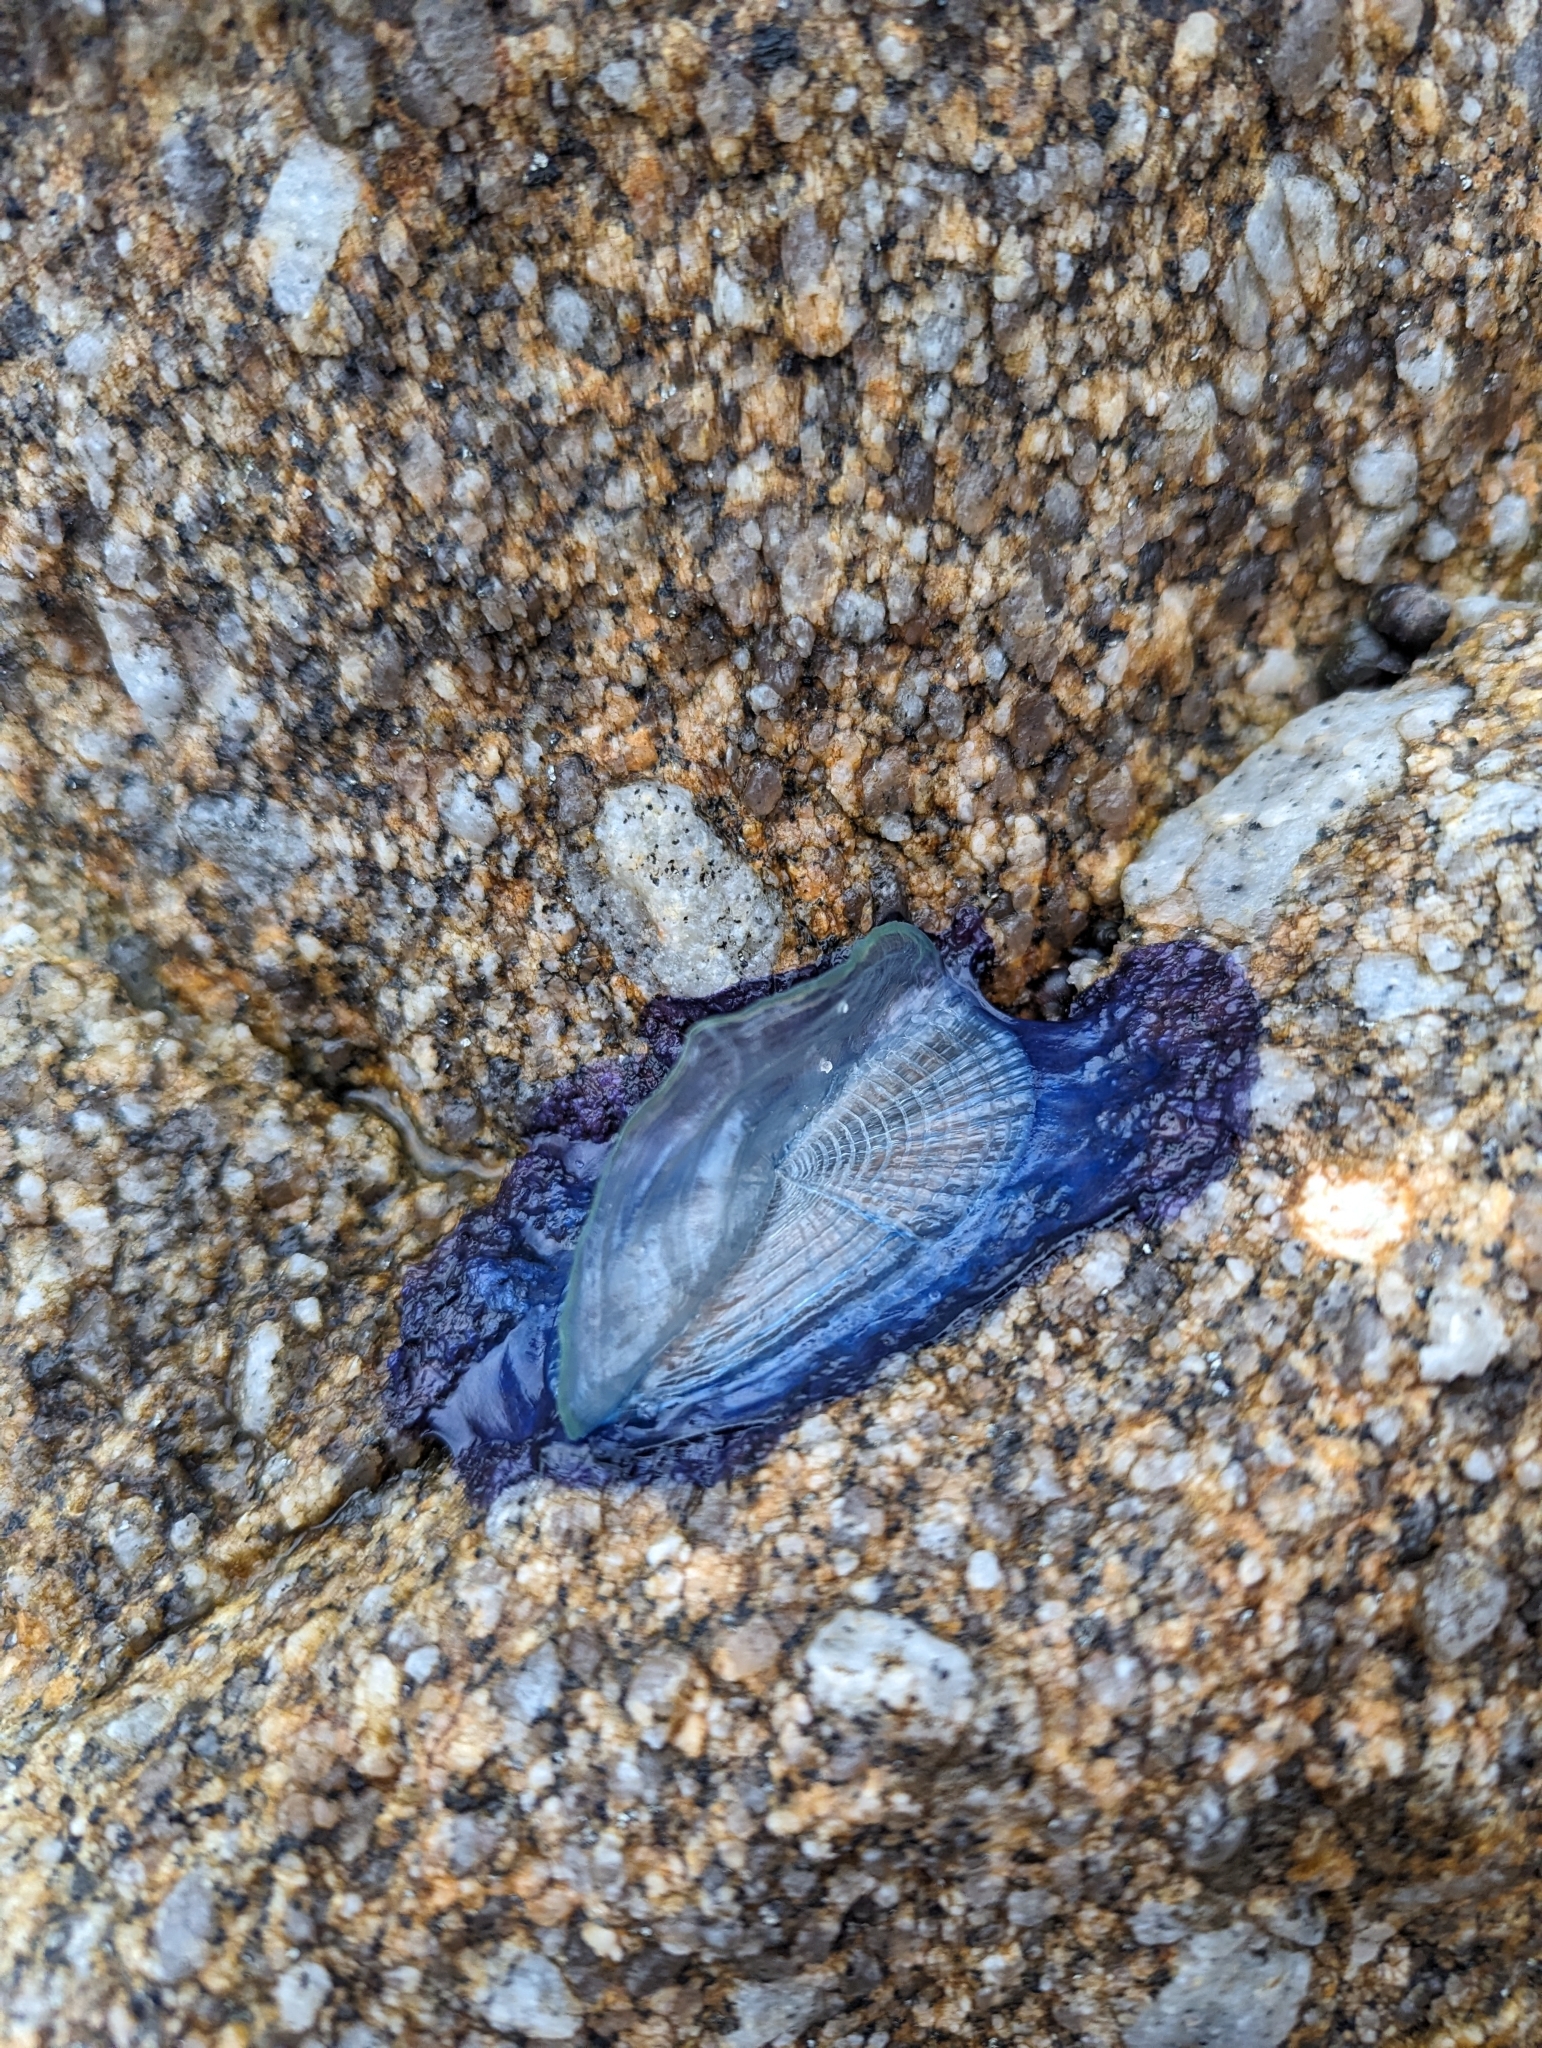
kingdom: Animalia
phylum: Cnidaria
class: Hydrozoa
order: Anthoathecata
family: Porpitidae
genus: Velella
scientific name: Velella velella
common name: By-the-wind-sailor
